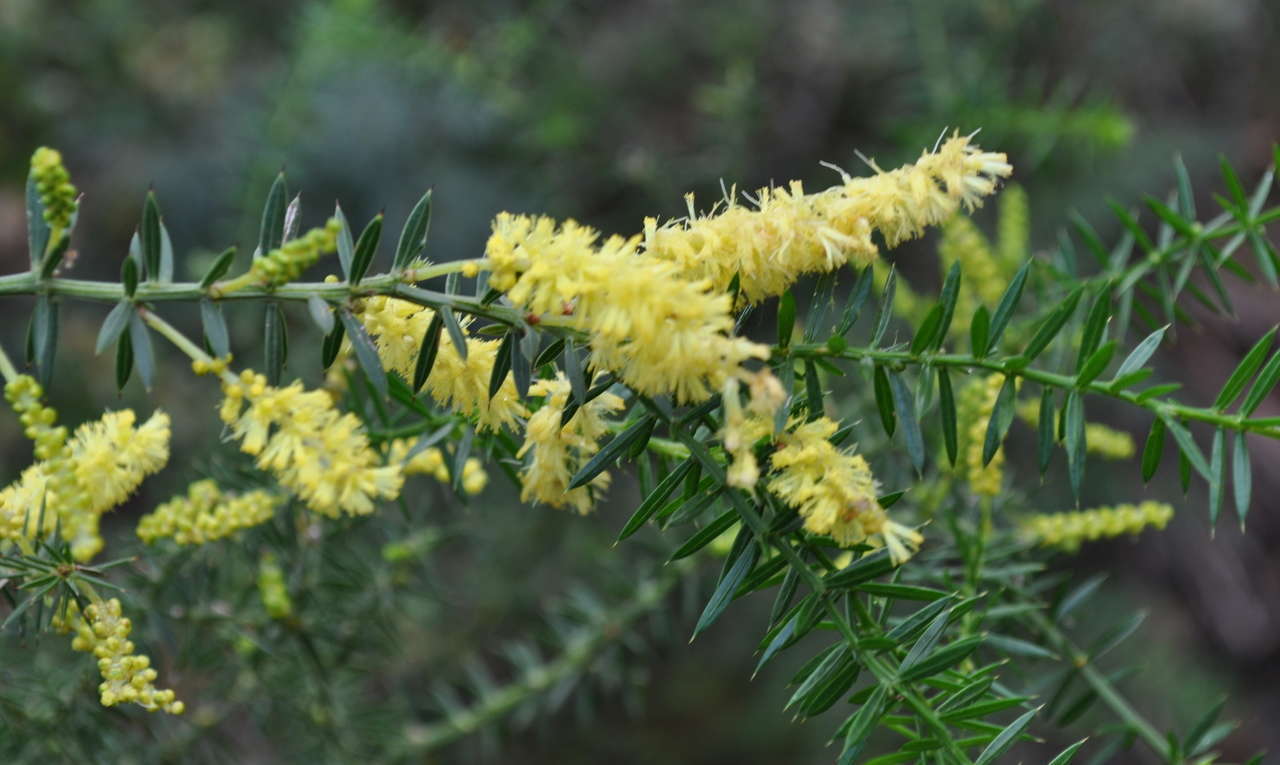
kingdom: Plantae
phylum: Tracheophyta
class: Magnoliopsida
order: Fabales
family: Fabaceae
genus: Acacia
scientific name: Acacia verticillata
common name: Prickly moses
